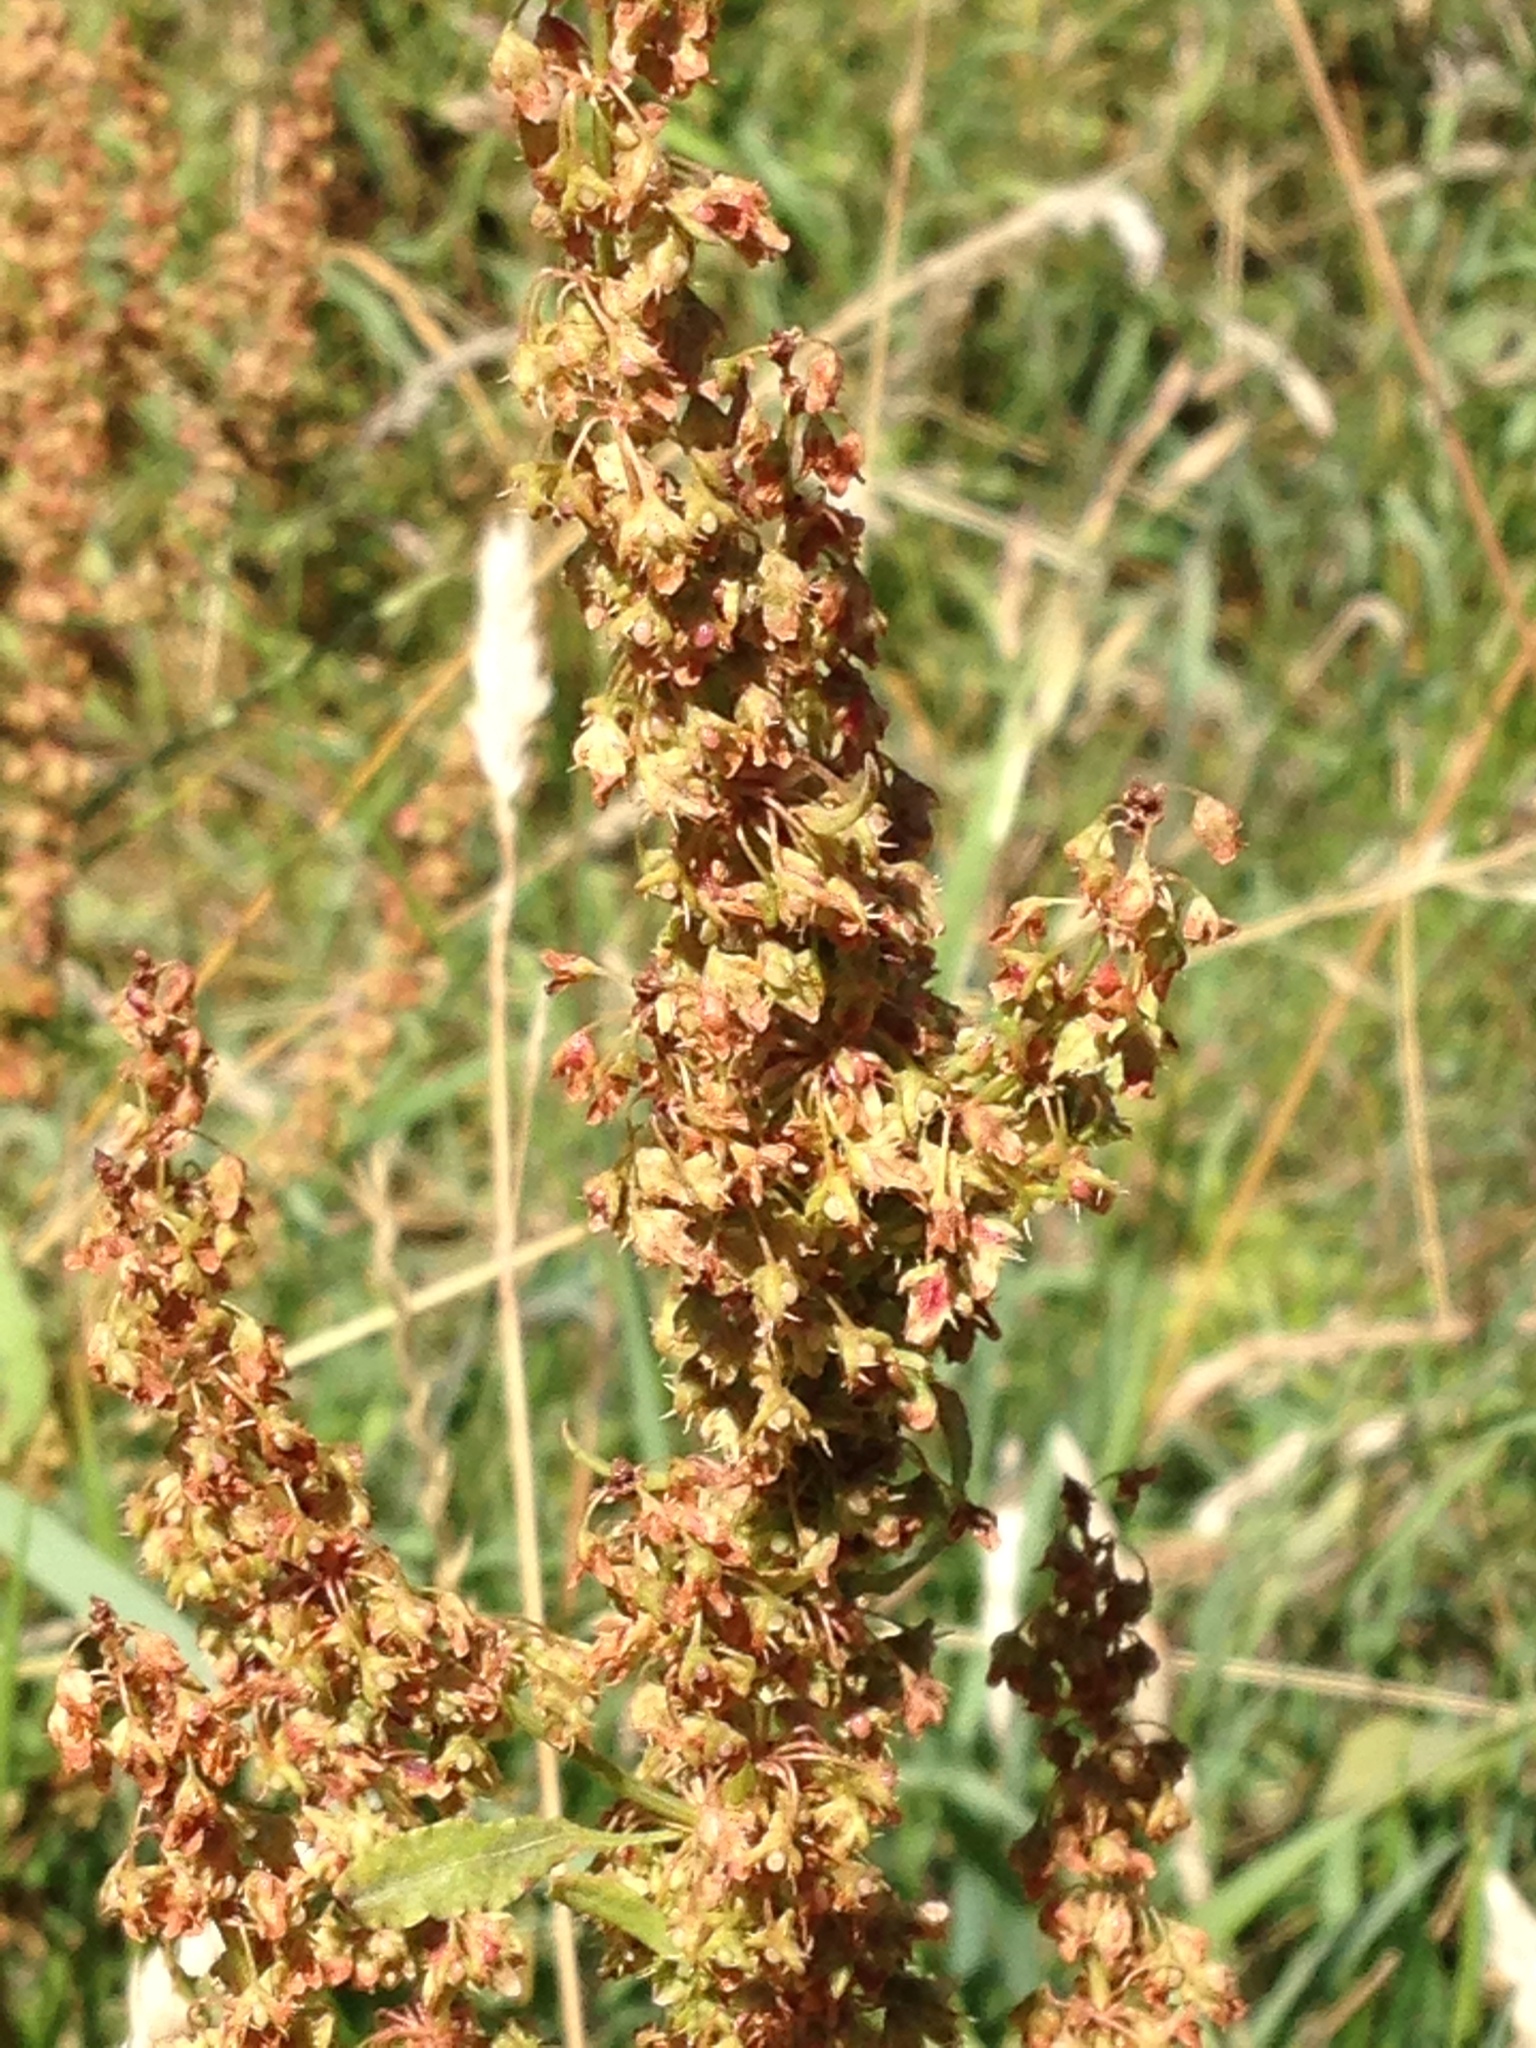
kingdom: Plantae
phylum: Tracheophyta
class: Magnoliopsida
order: Caryophyllales
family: Polygonaceae
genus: Rumex
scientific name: Rumex obtusifolius
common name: Bitter dock
